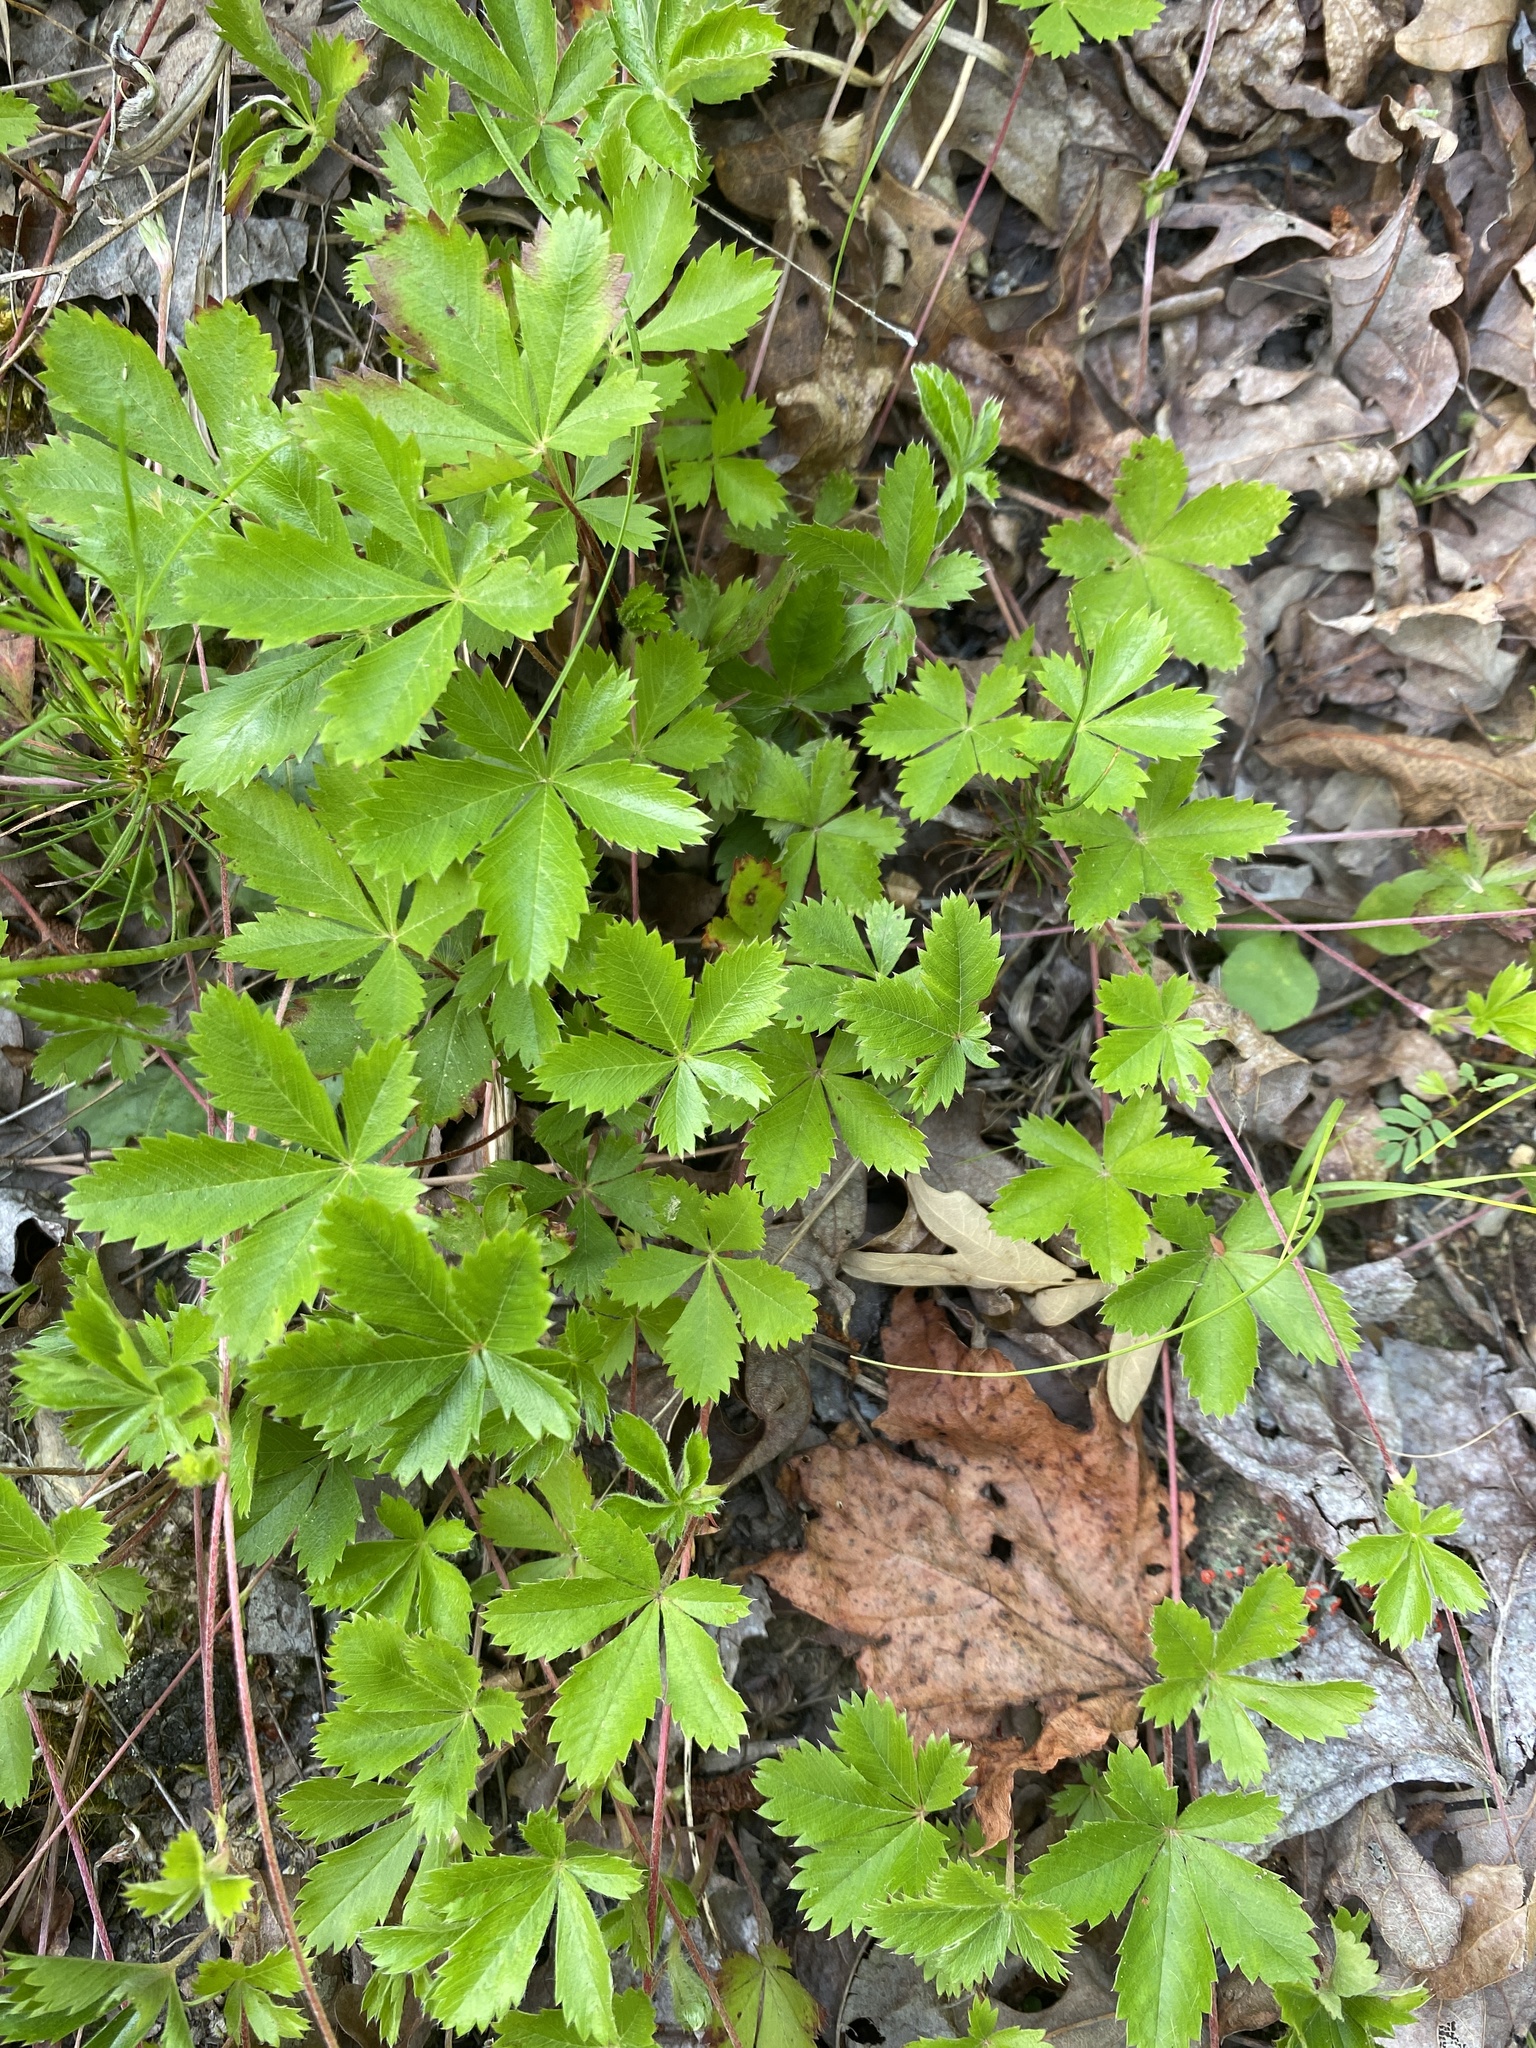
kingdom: Plantae
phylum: Tracheophyta
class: Magnoliopsida
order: Rosales
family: Rosaceae
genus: Potentilla
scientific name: Potentilla simplex
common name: Old field cinquefoil
